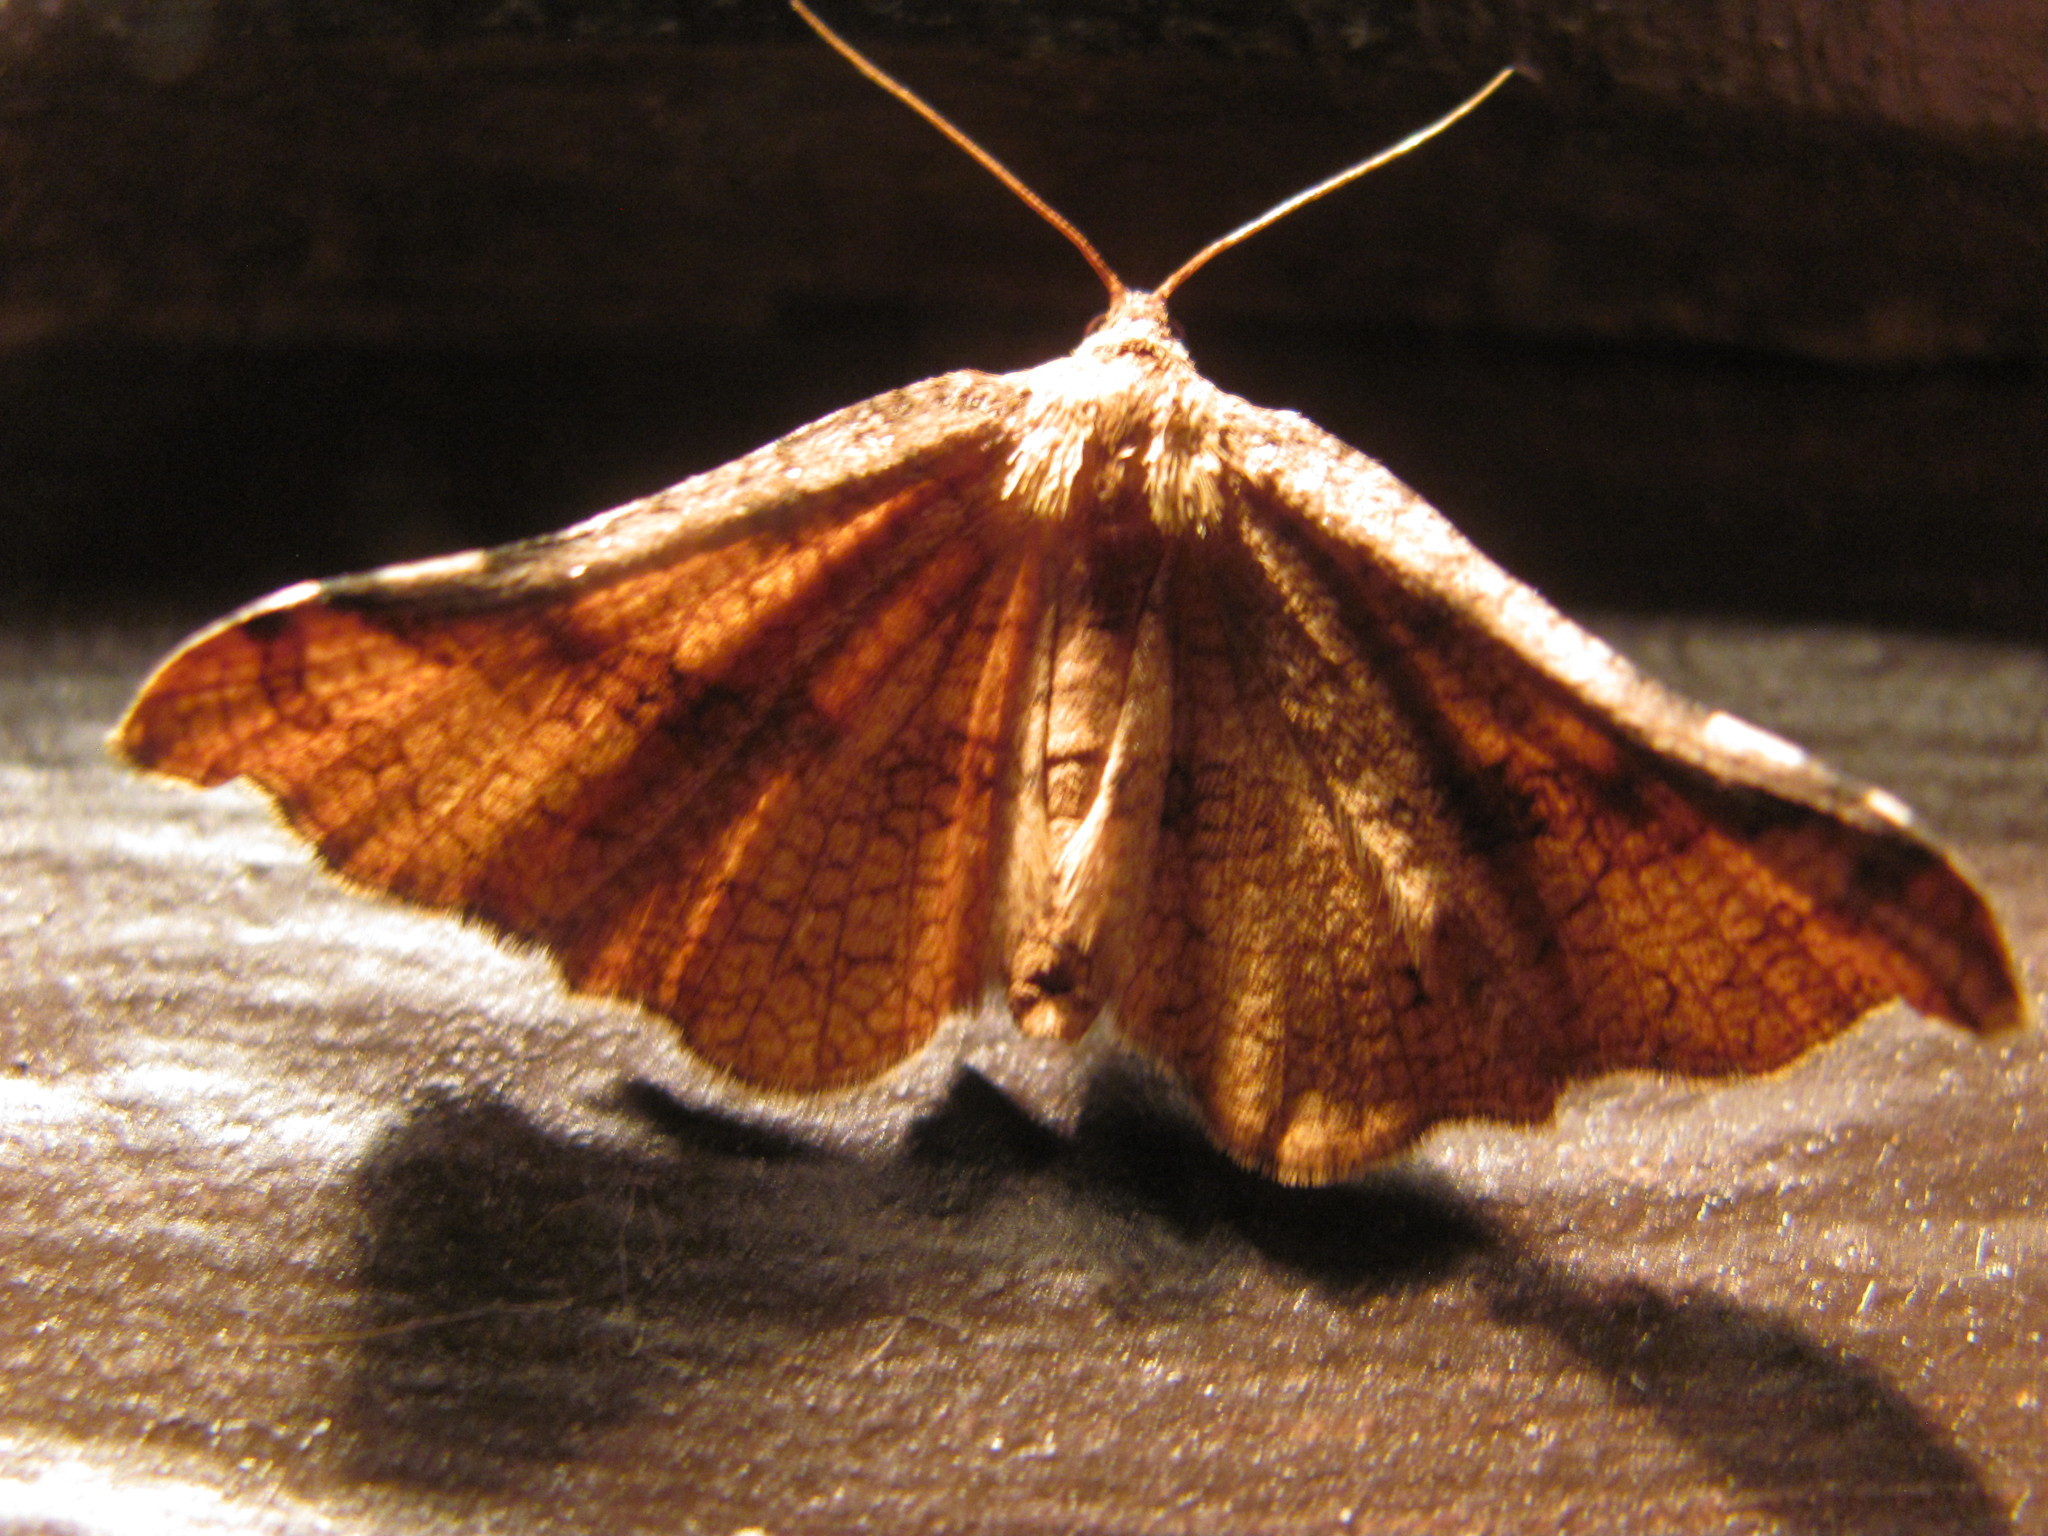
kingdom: Animalia
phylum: Arthropoda
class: Insecta
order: Lepidoptera
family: Thyrididae
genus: Morova
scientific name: Morova subfasciata
